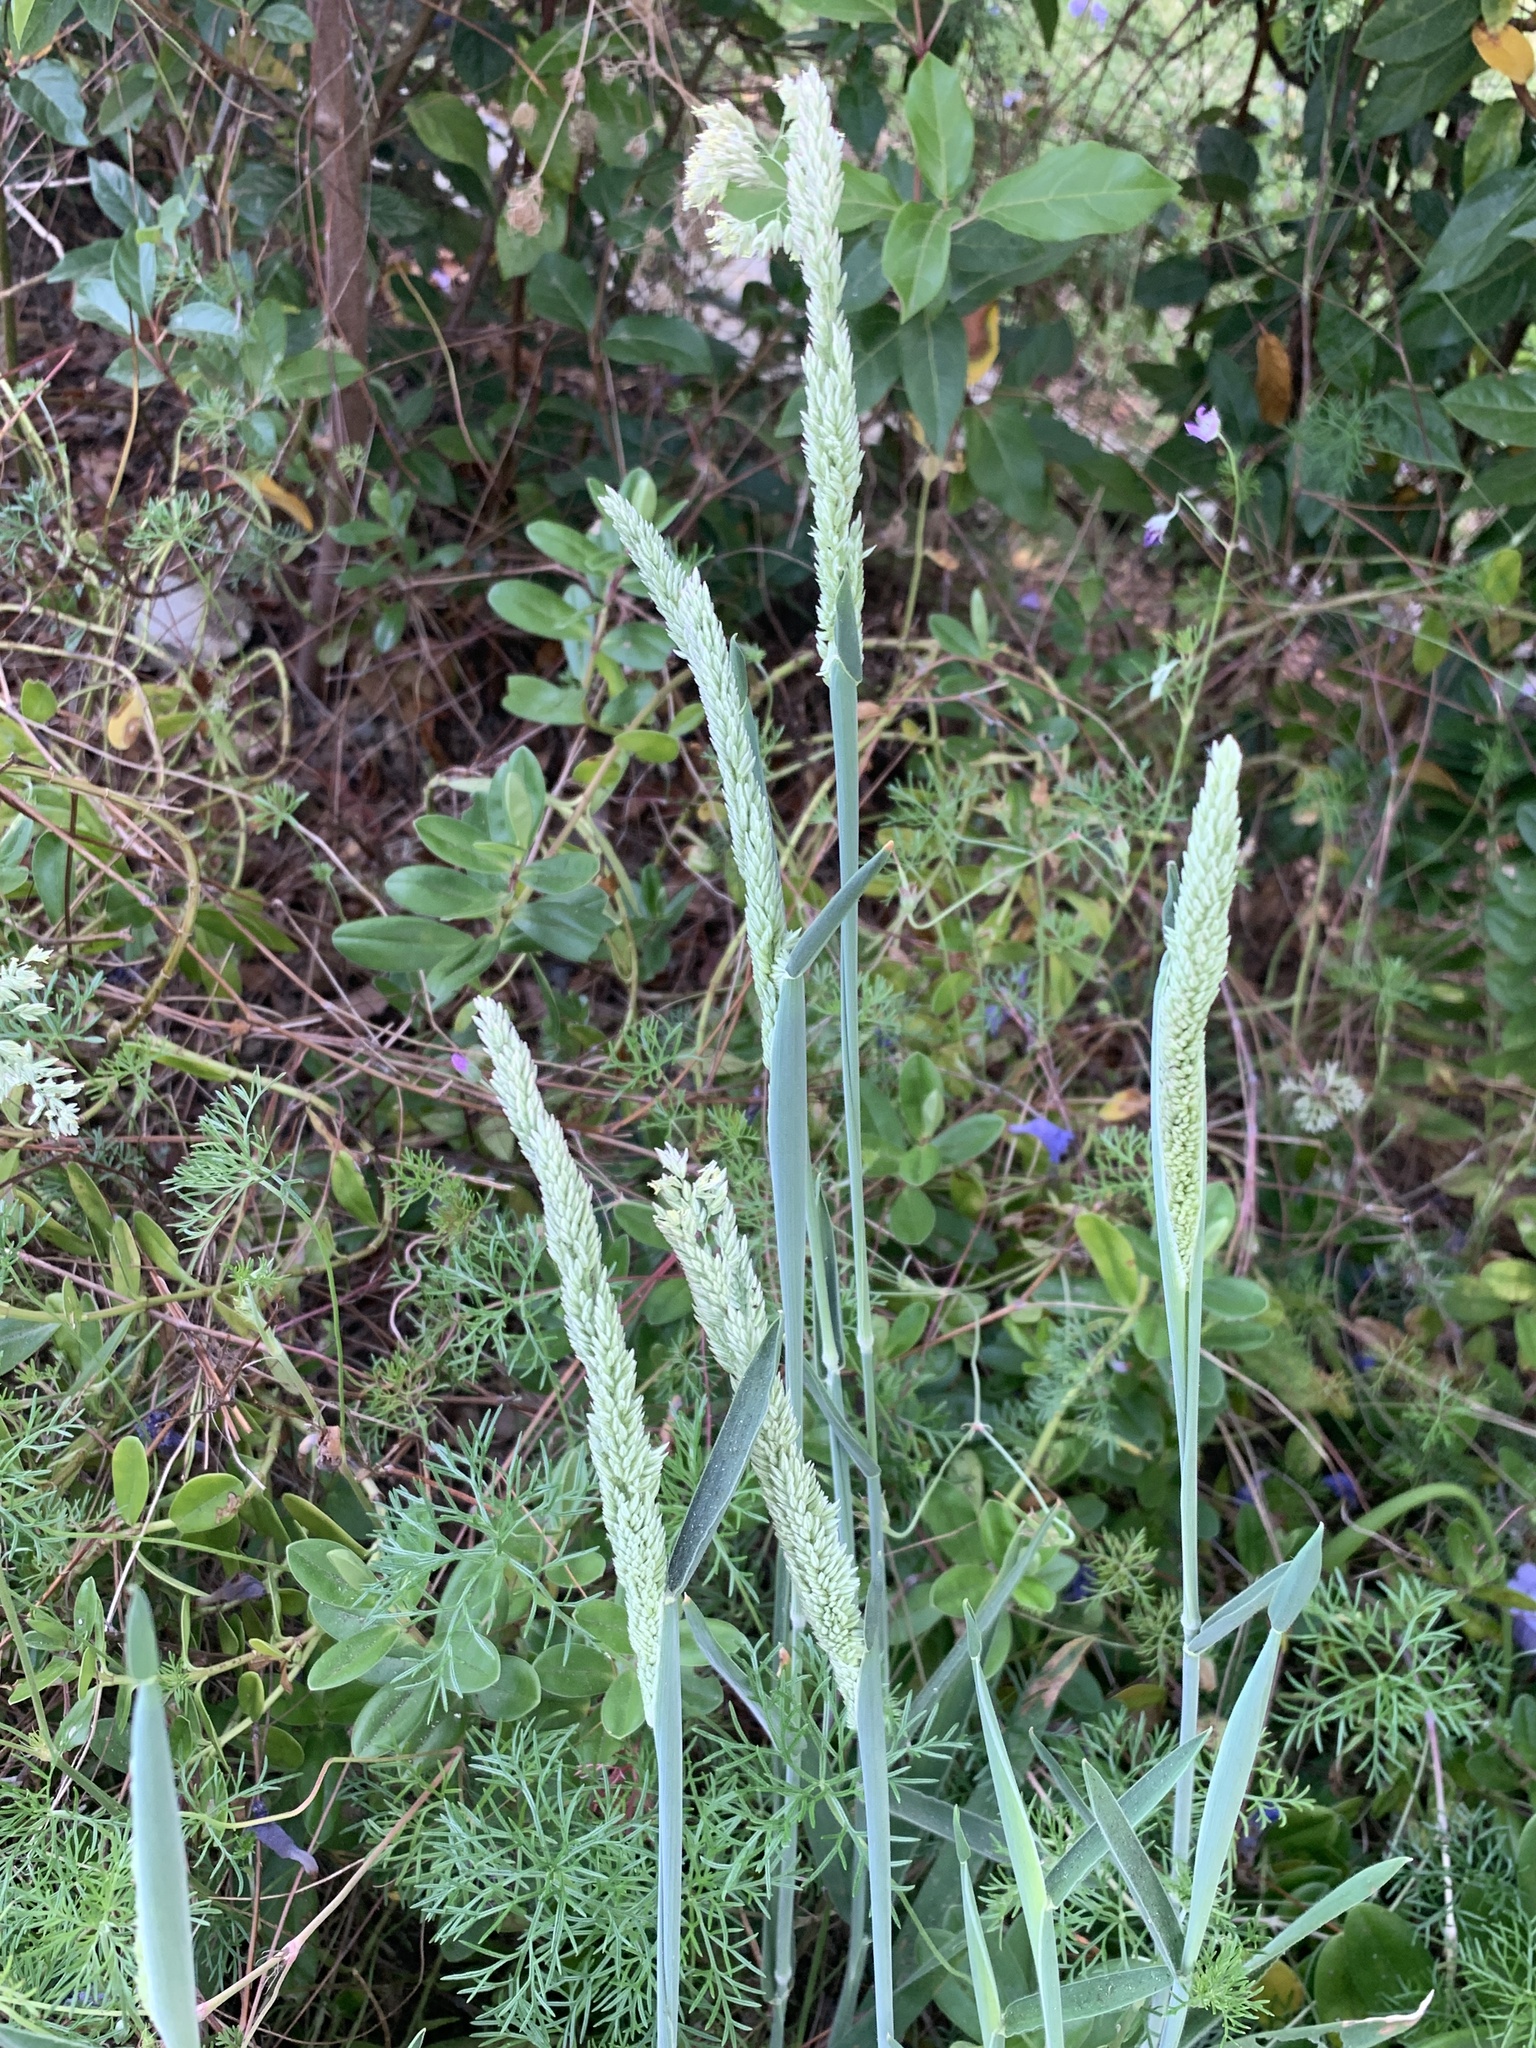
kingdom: Plantae
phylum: Tracheophyta
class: Liliopsida
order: Poales
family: Poaceae
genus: Holcus
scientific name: Holcus lanatus
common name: Yorkshire-fog
